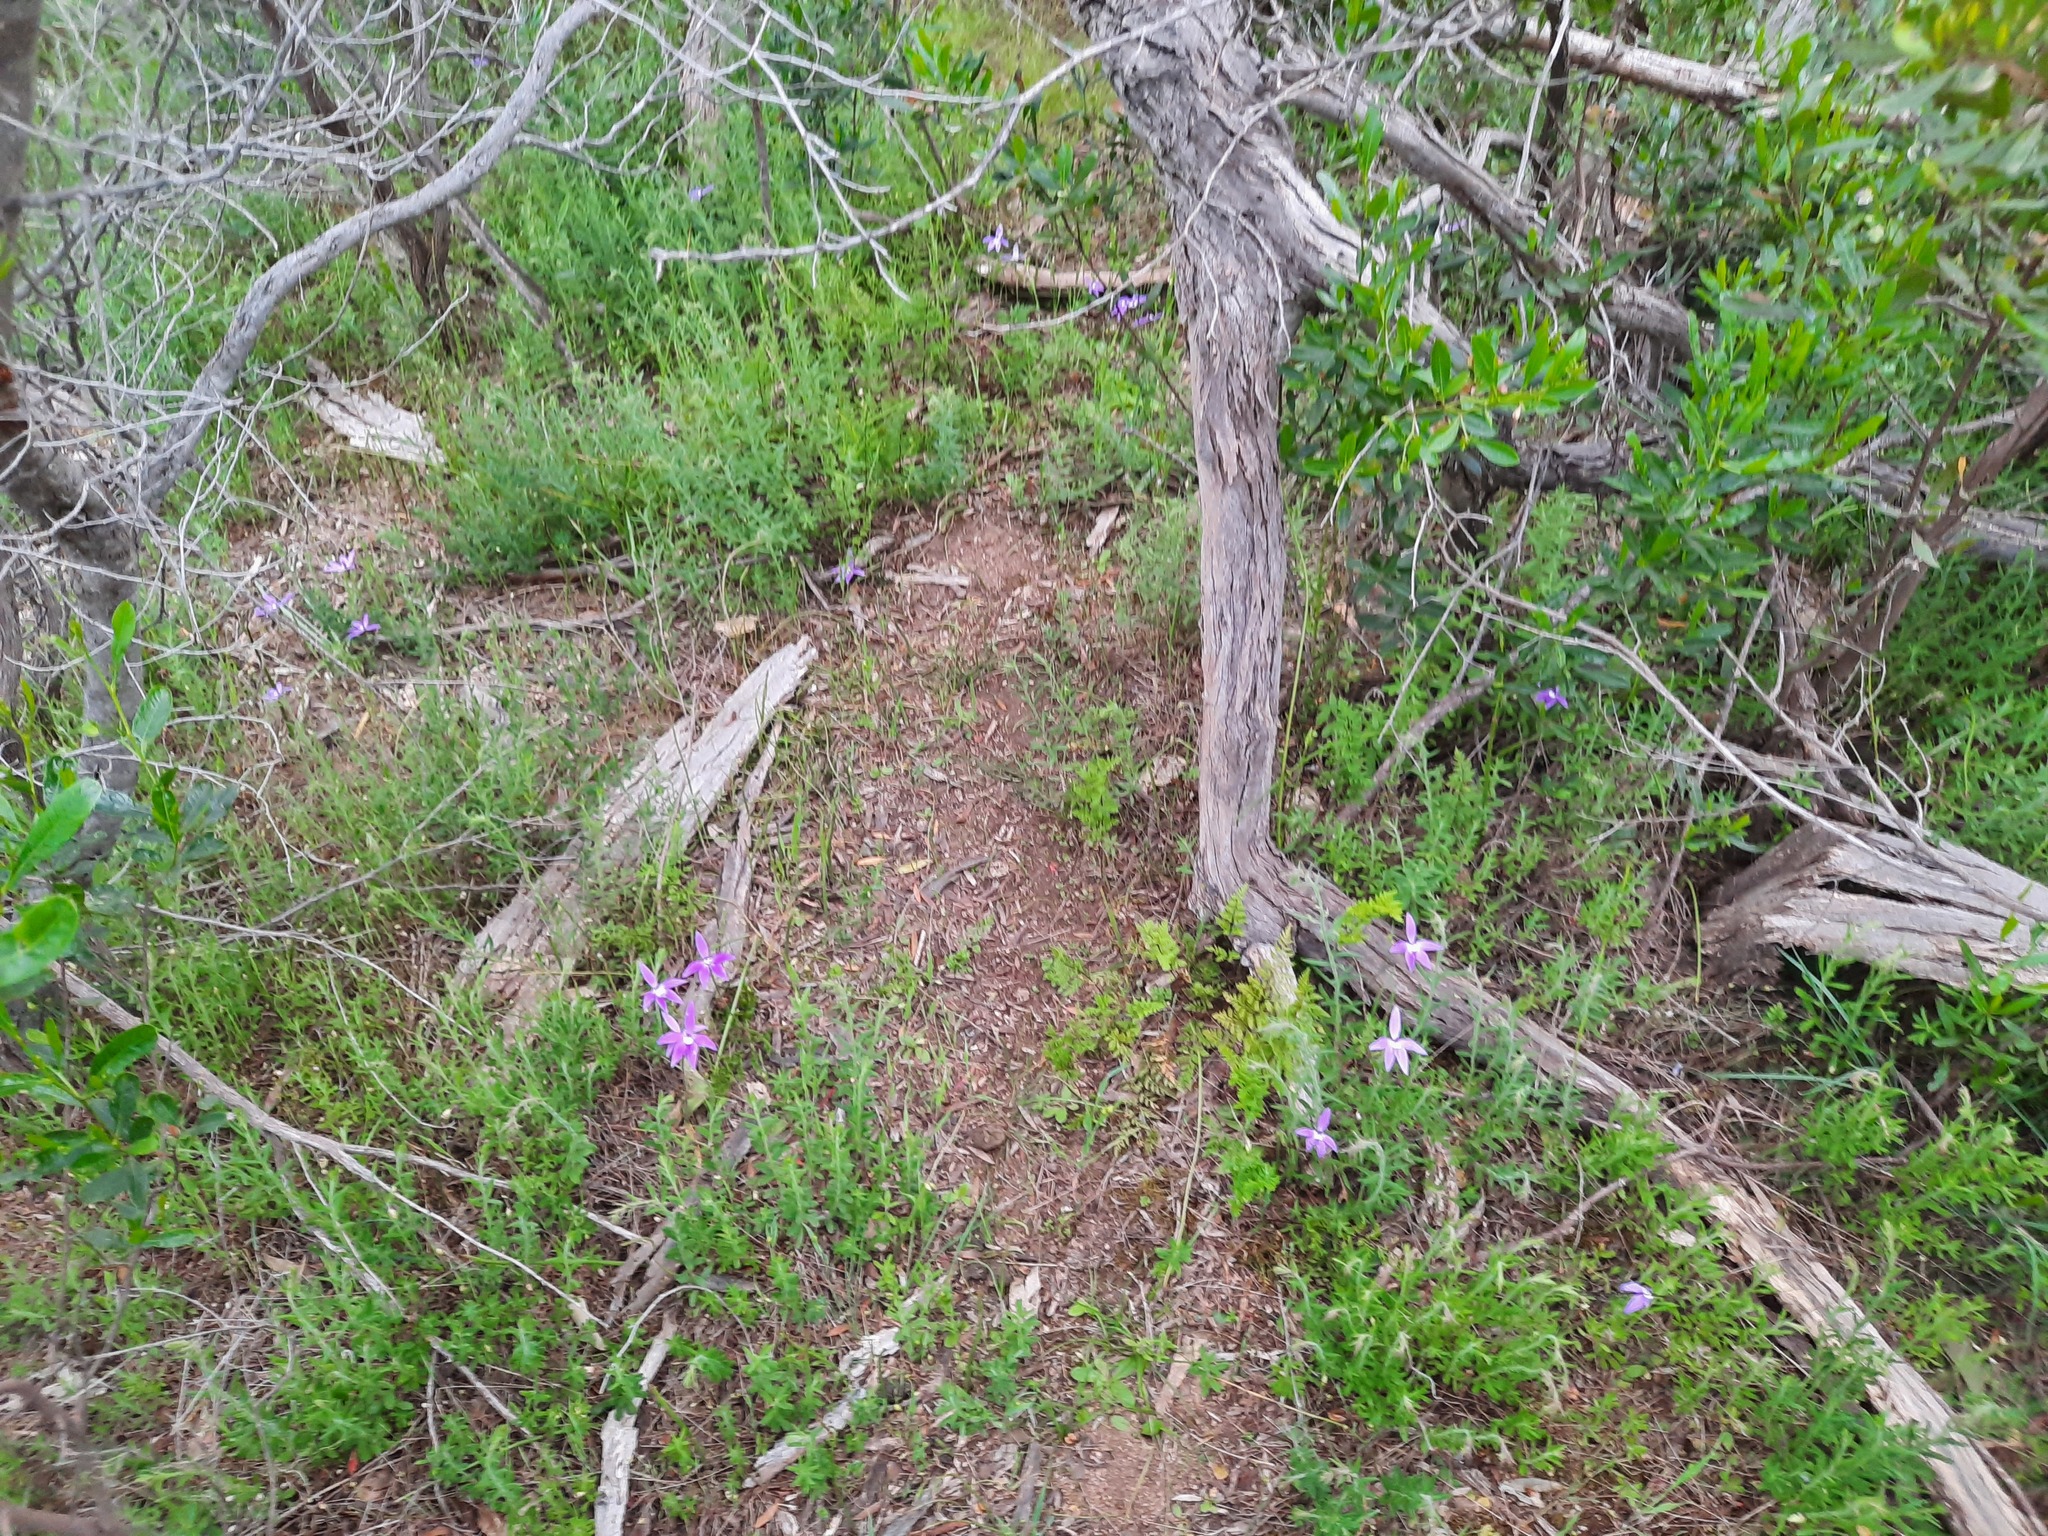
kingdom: Plantae
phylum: Tracheophyta
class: Liliopsida
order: Asparagales
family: Orchidaceae
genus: Caladenia
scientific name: Caladenia major
